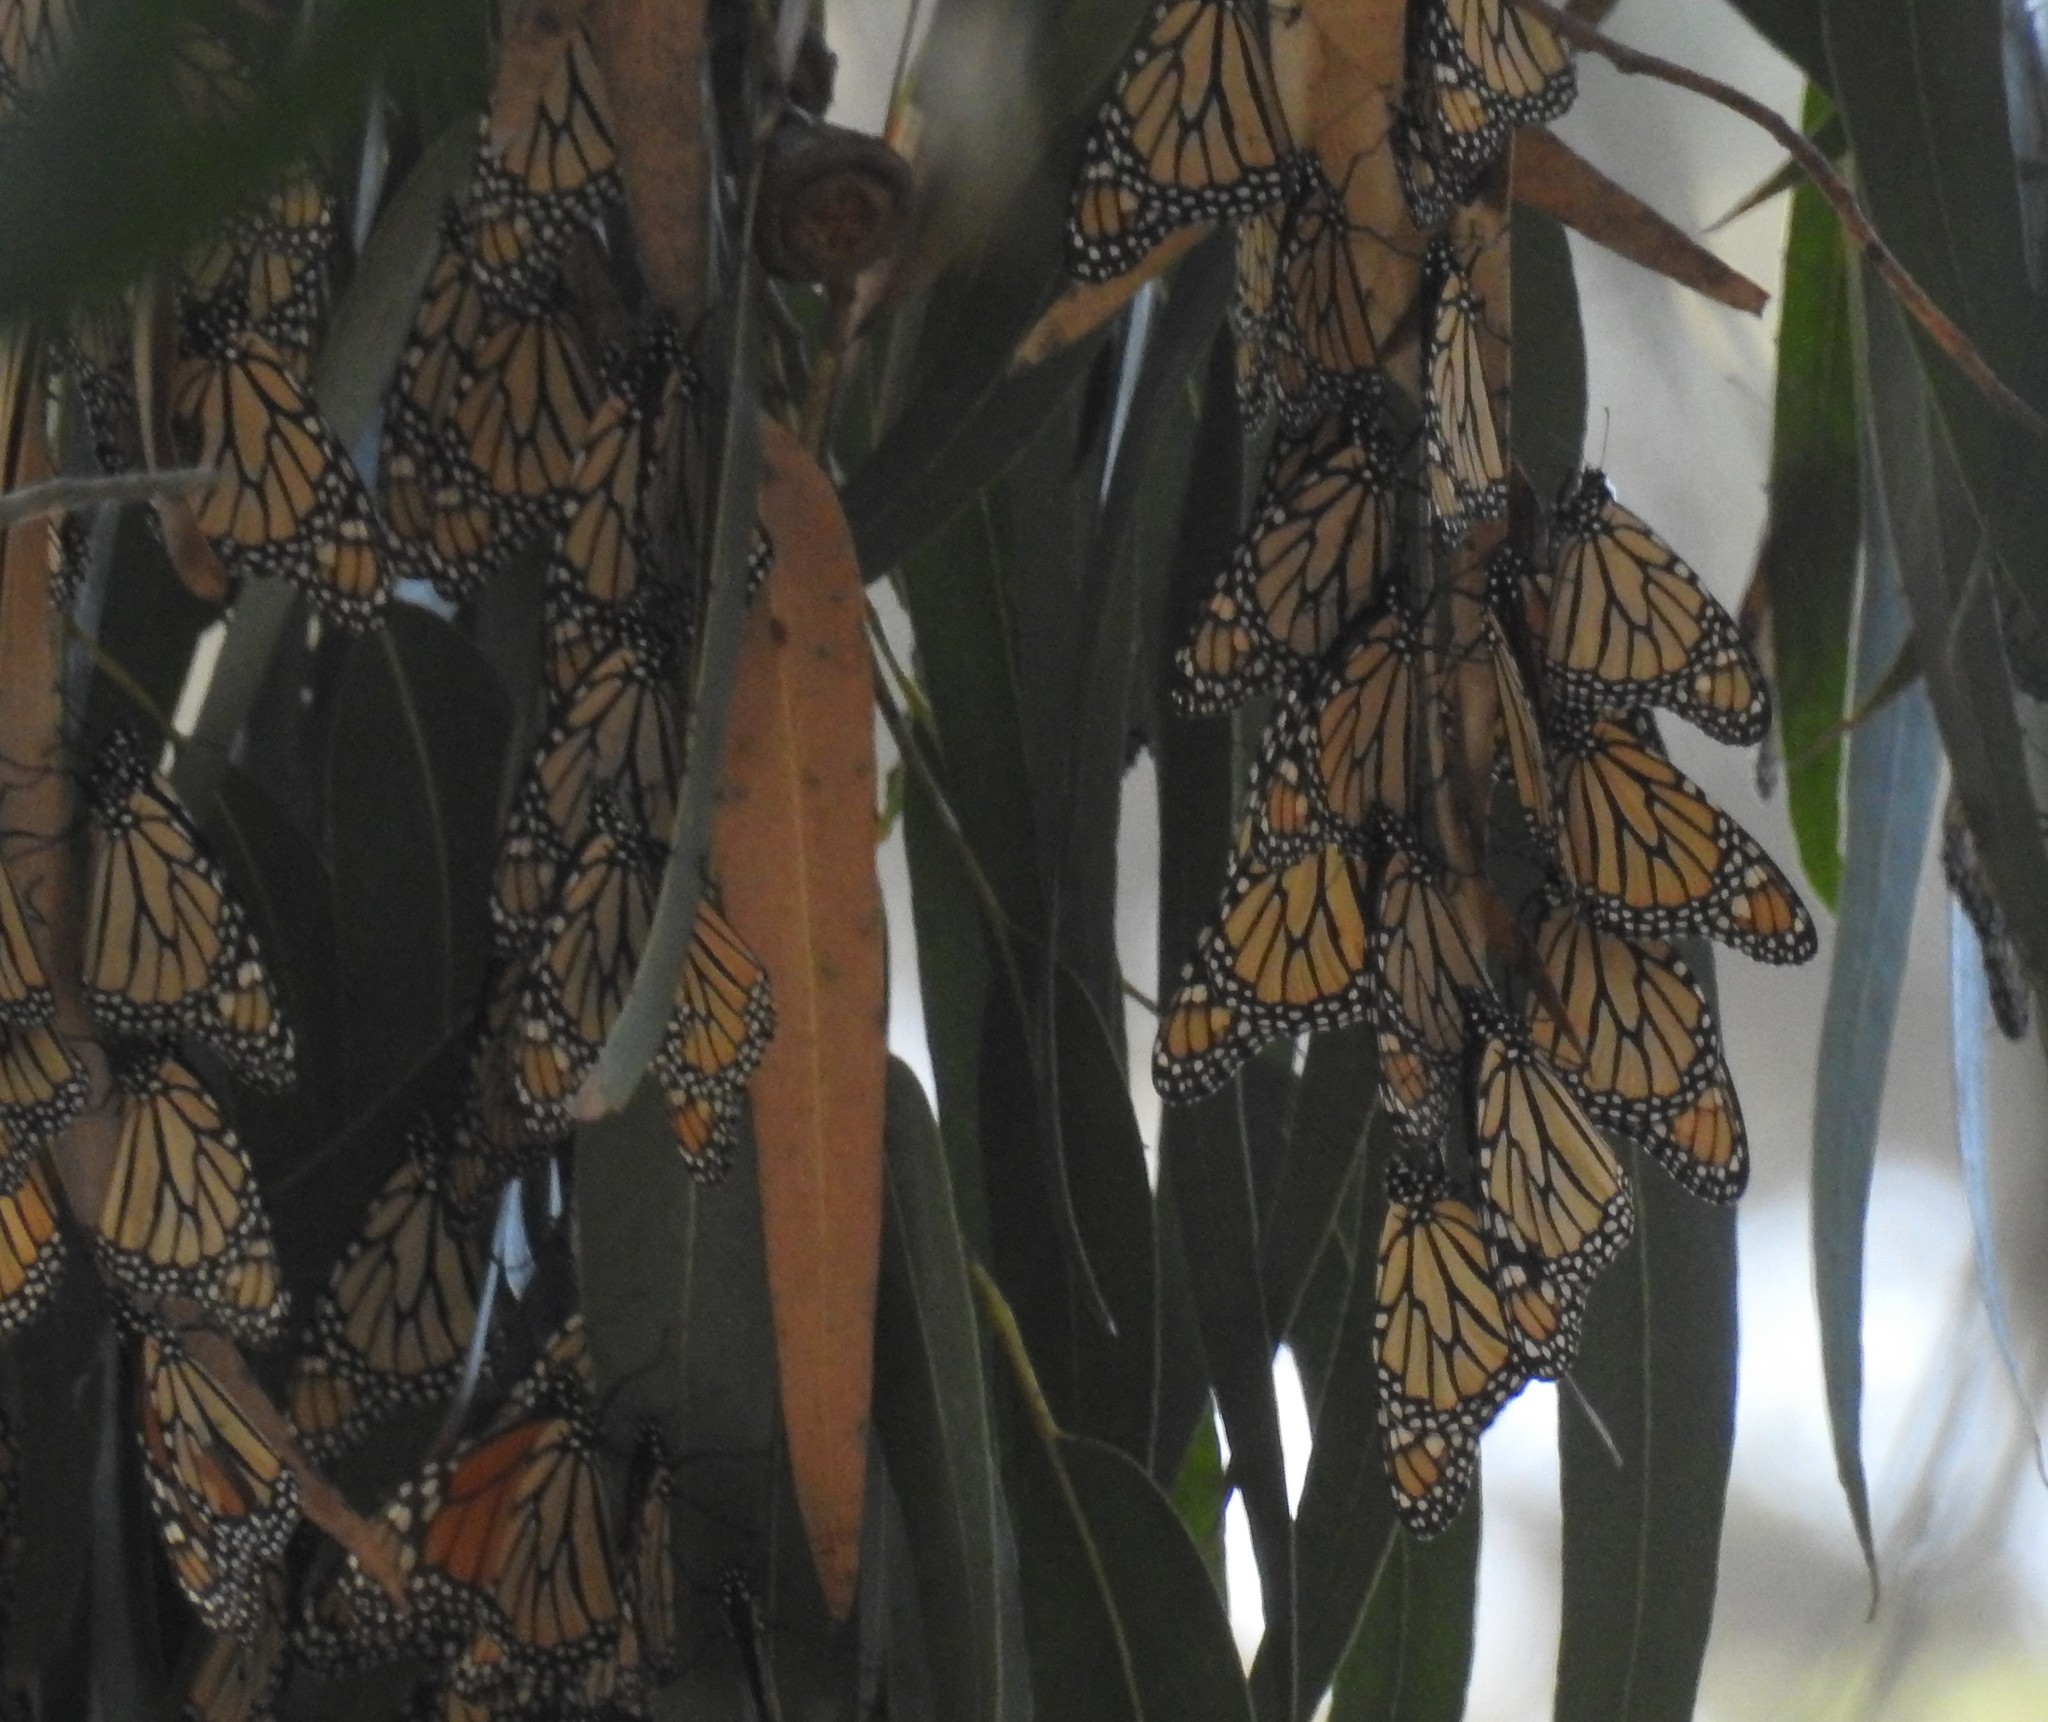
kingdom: Animalia
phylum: Arthropoda
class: Insecta
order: Lepidoptera
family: Nymphalidae
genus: Danaus
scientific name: Danaus plexippus
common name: Monarch
